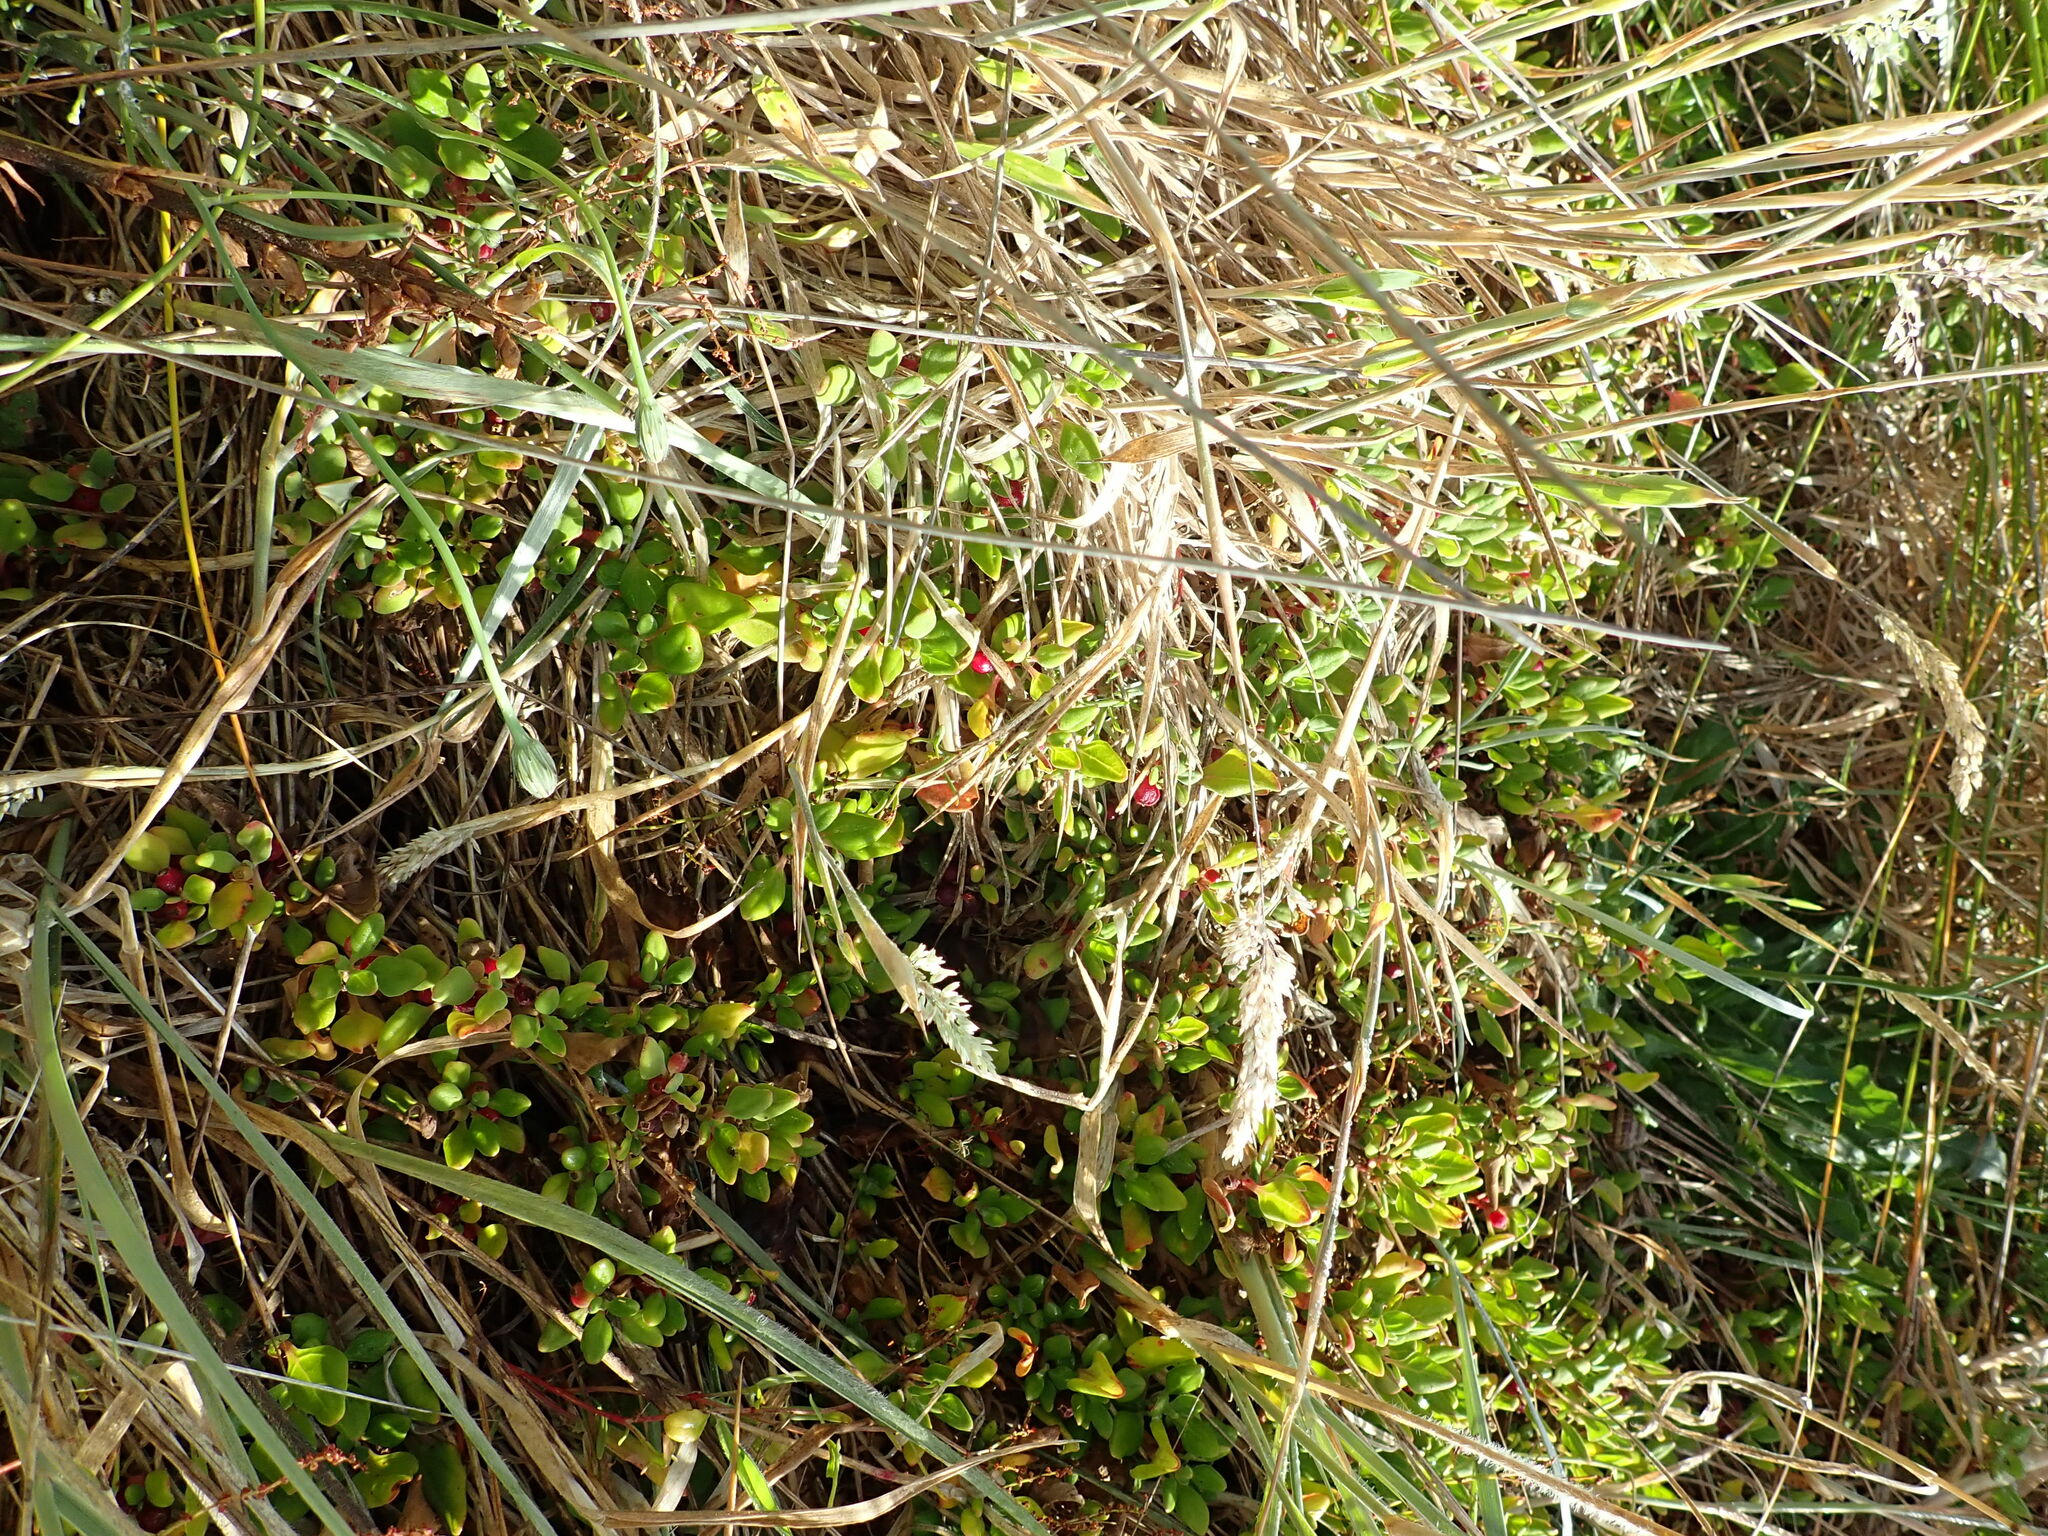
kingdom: Plantae
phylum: Tracheophyta
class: Magnoliopsida
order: Caryophyllales
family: Aizoaceae
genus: Tetragonia
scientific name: Tetragonia implexicoma
